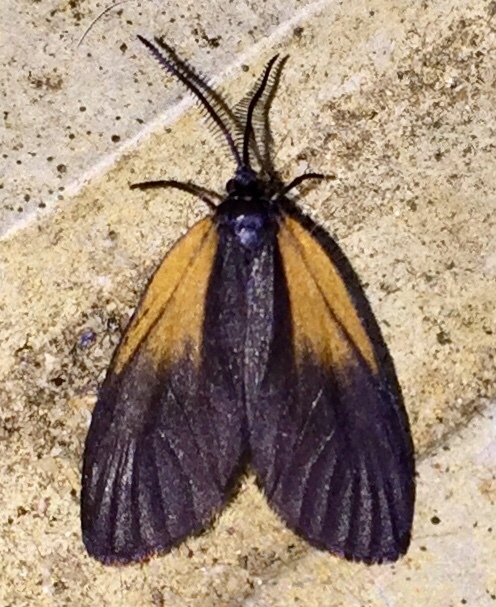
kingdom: Animalia
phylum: Arthropoda
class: Insecta
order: Lepidoptera
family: Zygaenidae
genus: Malthaca
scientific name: Malthaca dimidiata
